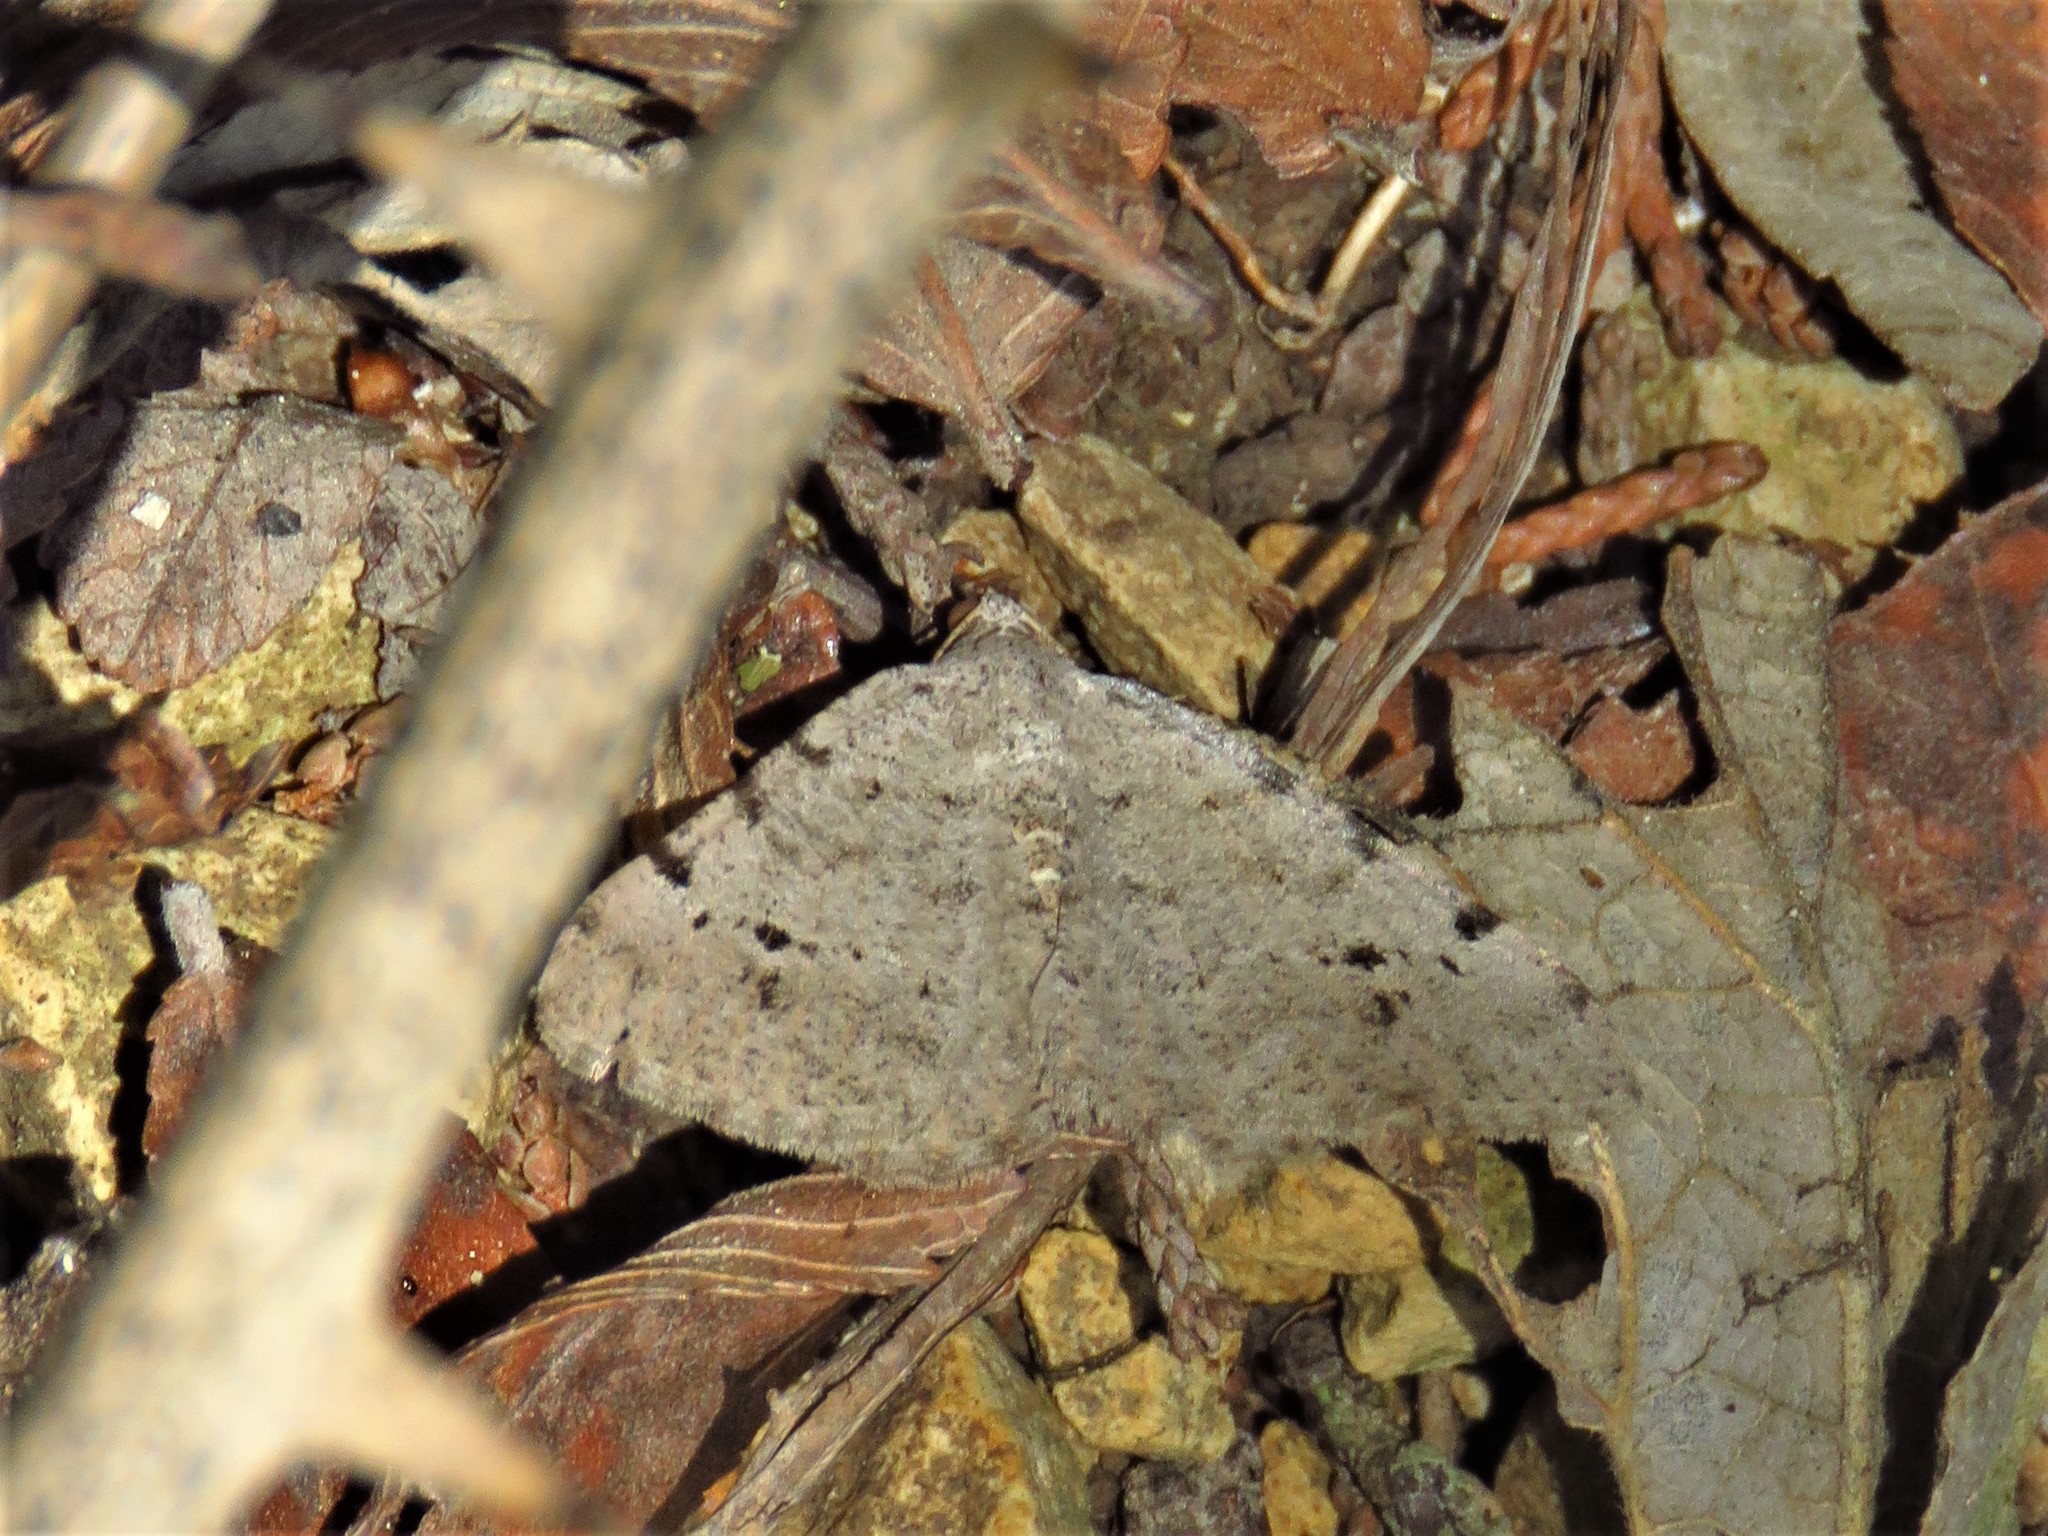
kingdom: Animalia
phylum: Arthropoda
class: Insecta
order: Lepidoptera
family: Geometridae
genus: Digrammia
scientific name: Digrammia pallidata
